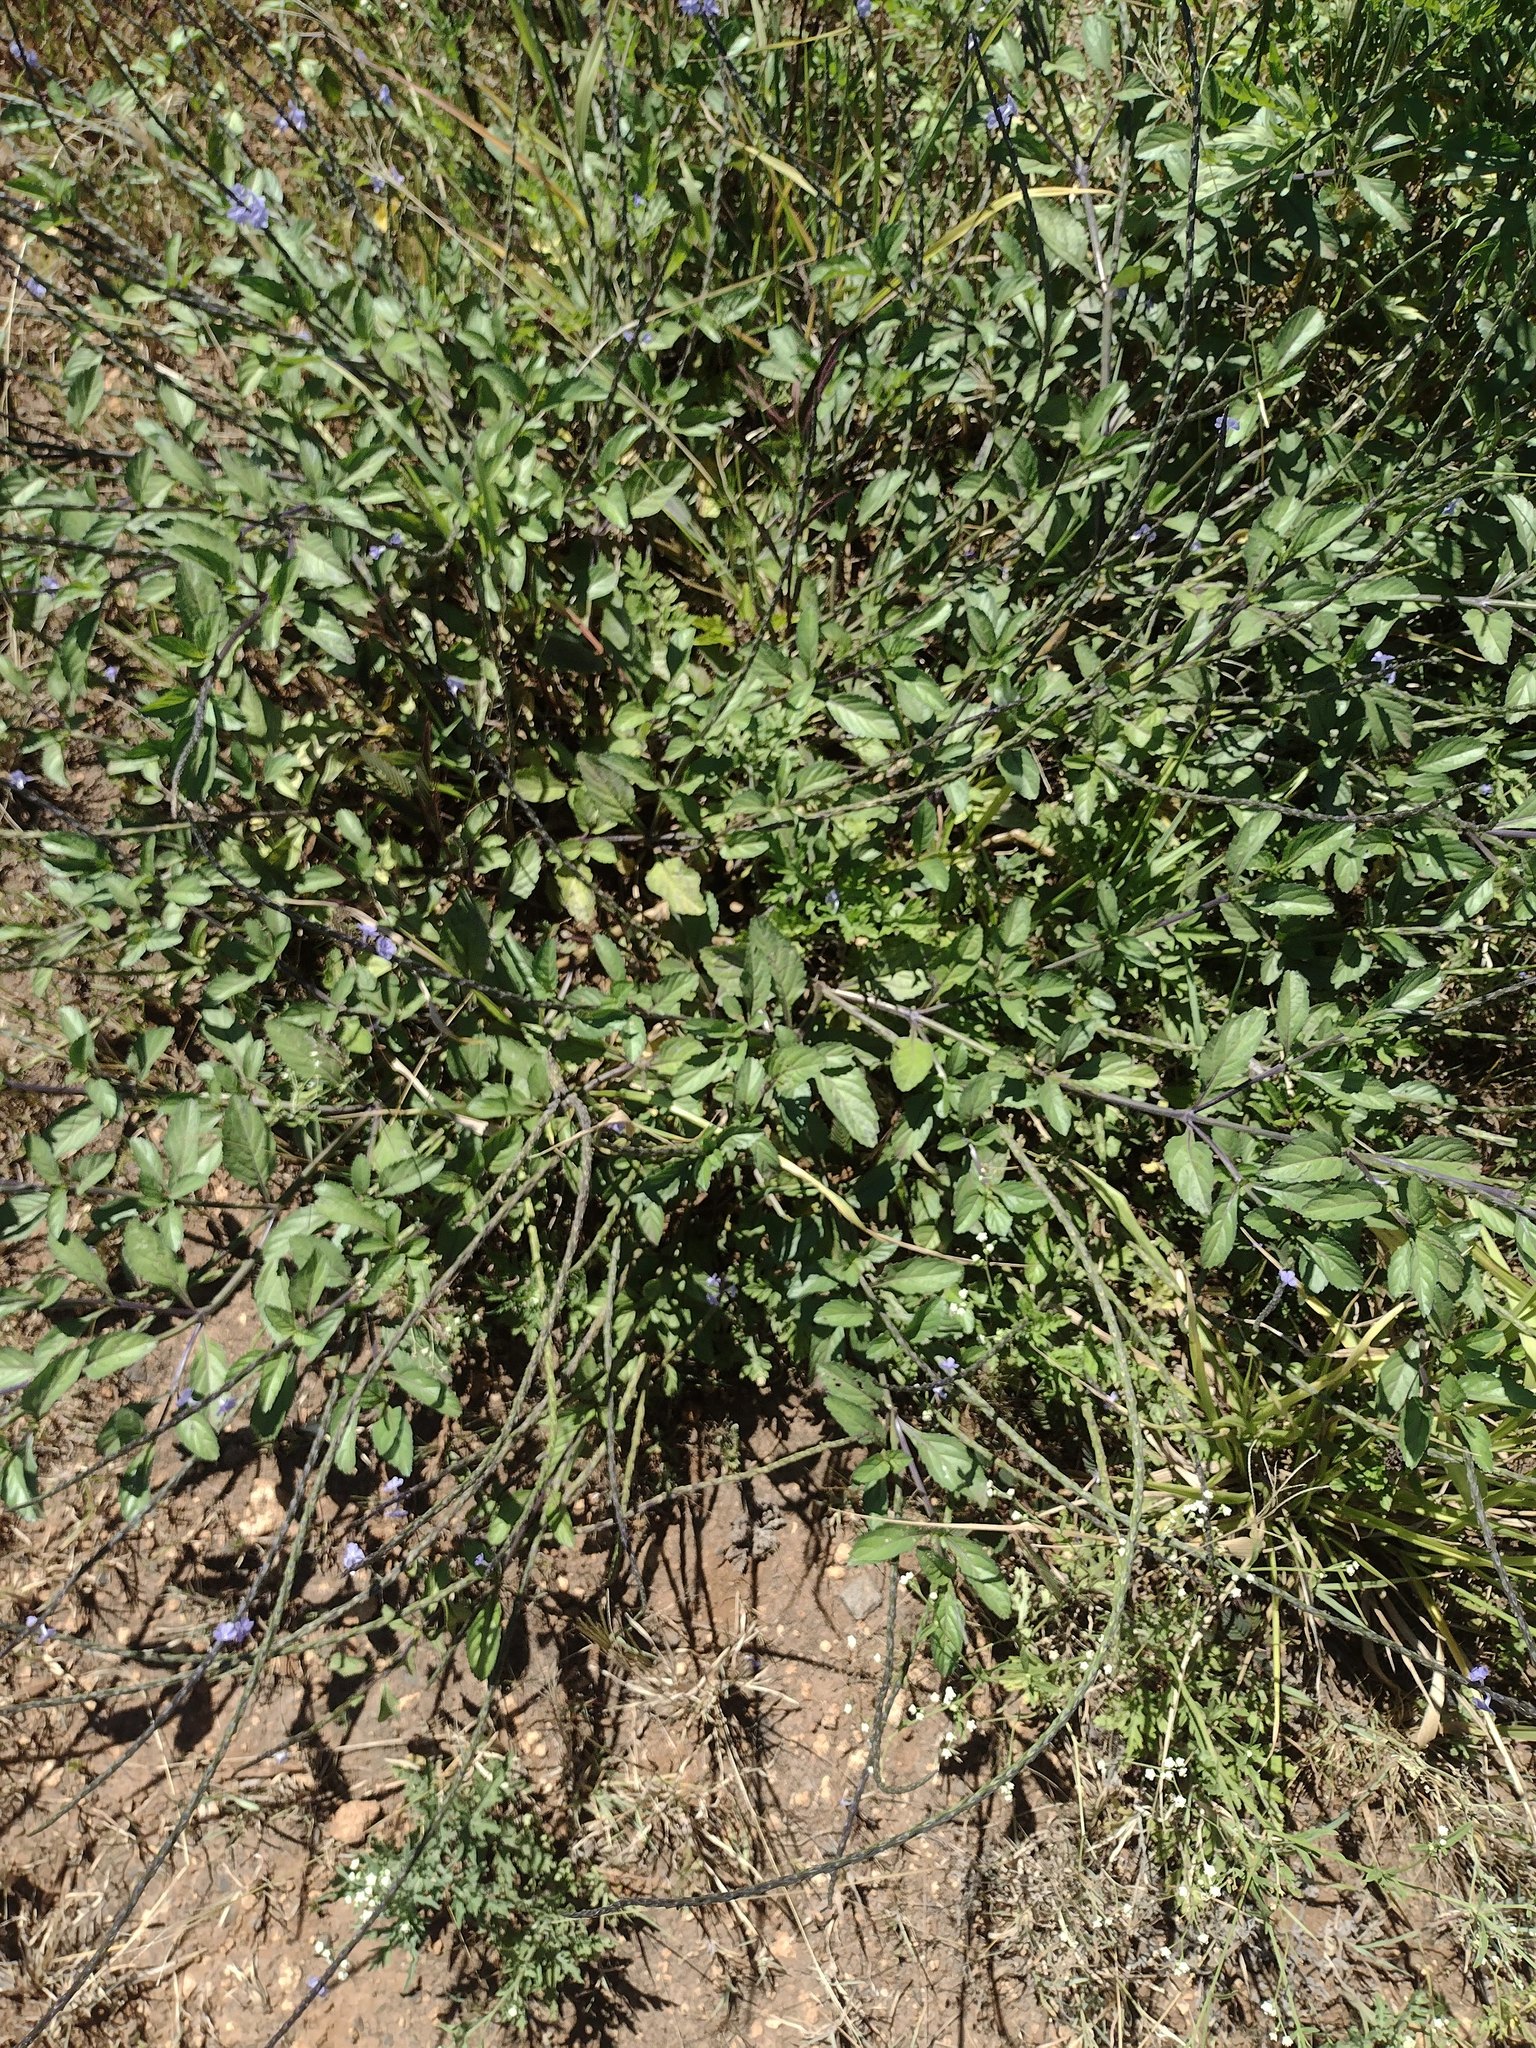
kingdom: Plantae
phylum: Tracheophyta
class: Magnoliopsida
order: Lamiales
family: Verbenaceae
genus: Stachytarpheta
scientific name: Stachytarpheta jamaicensis
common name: Light-blue snakeweed
